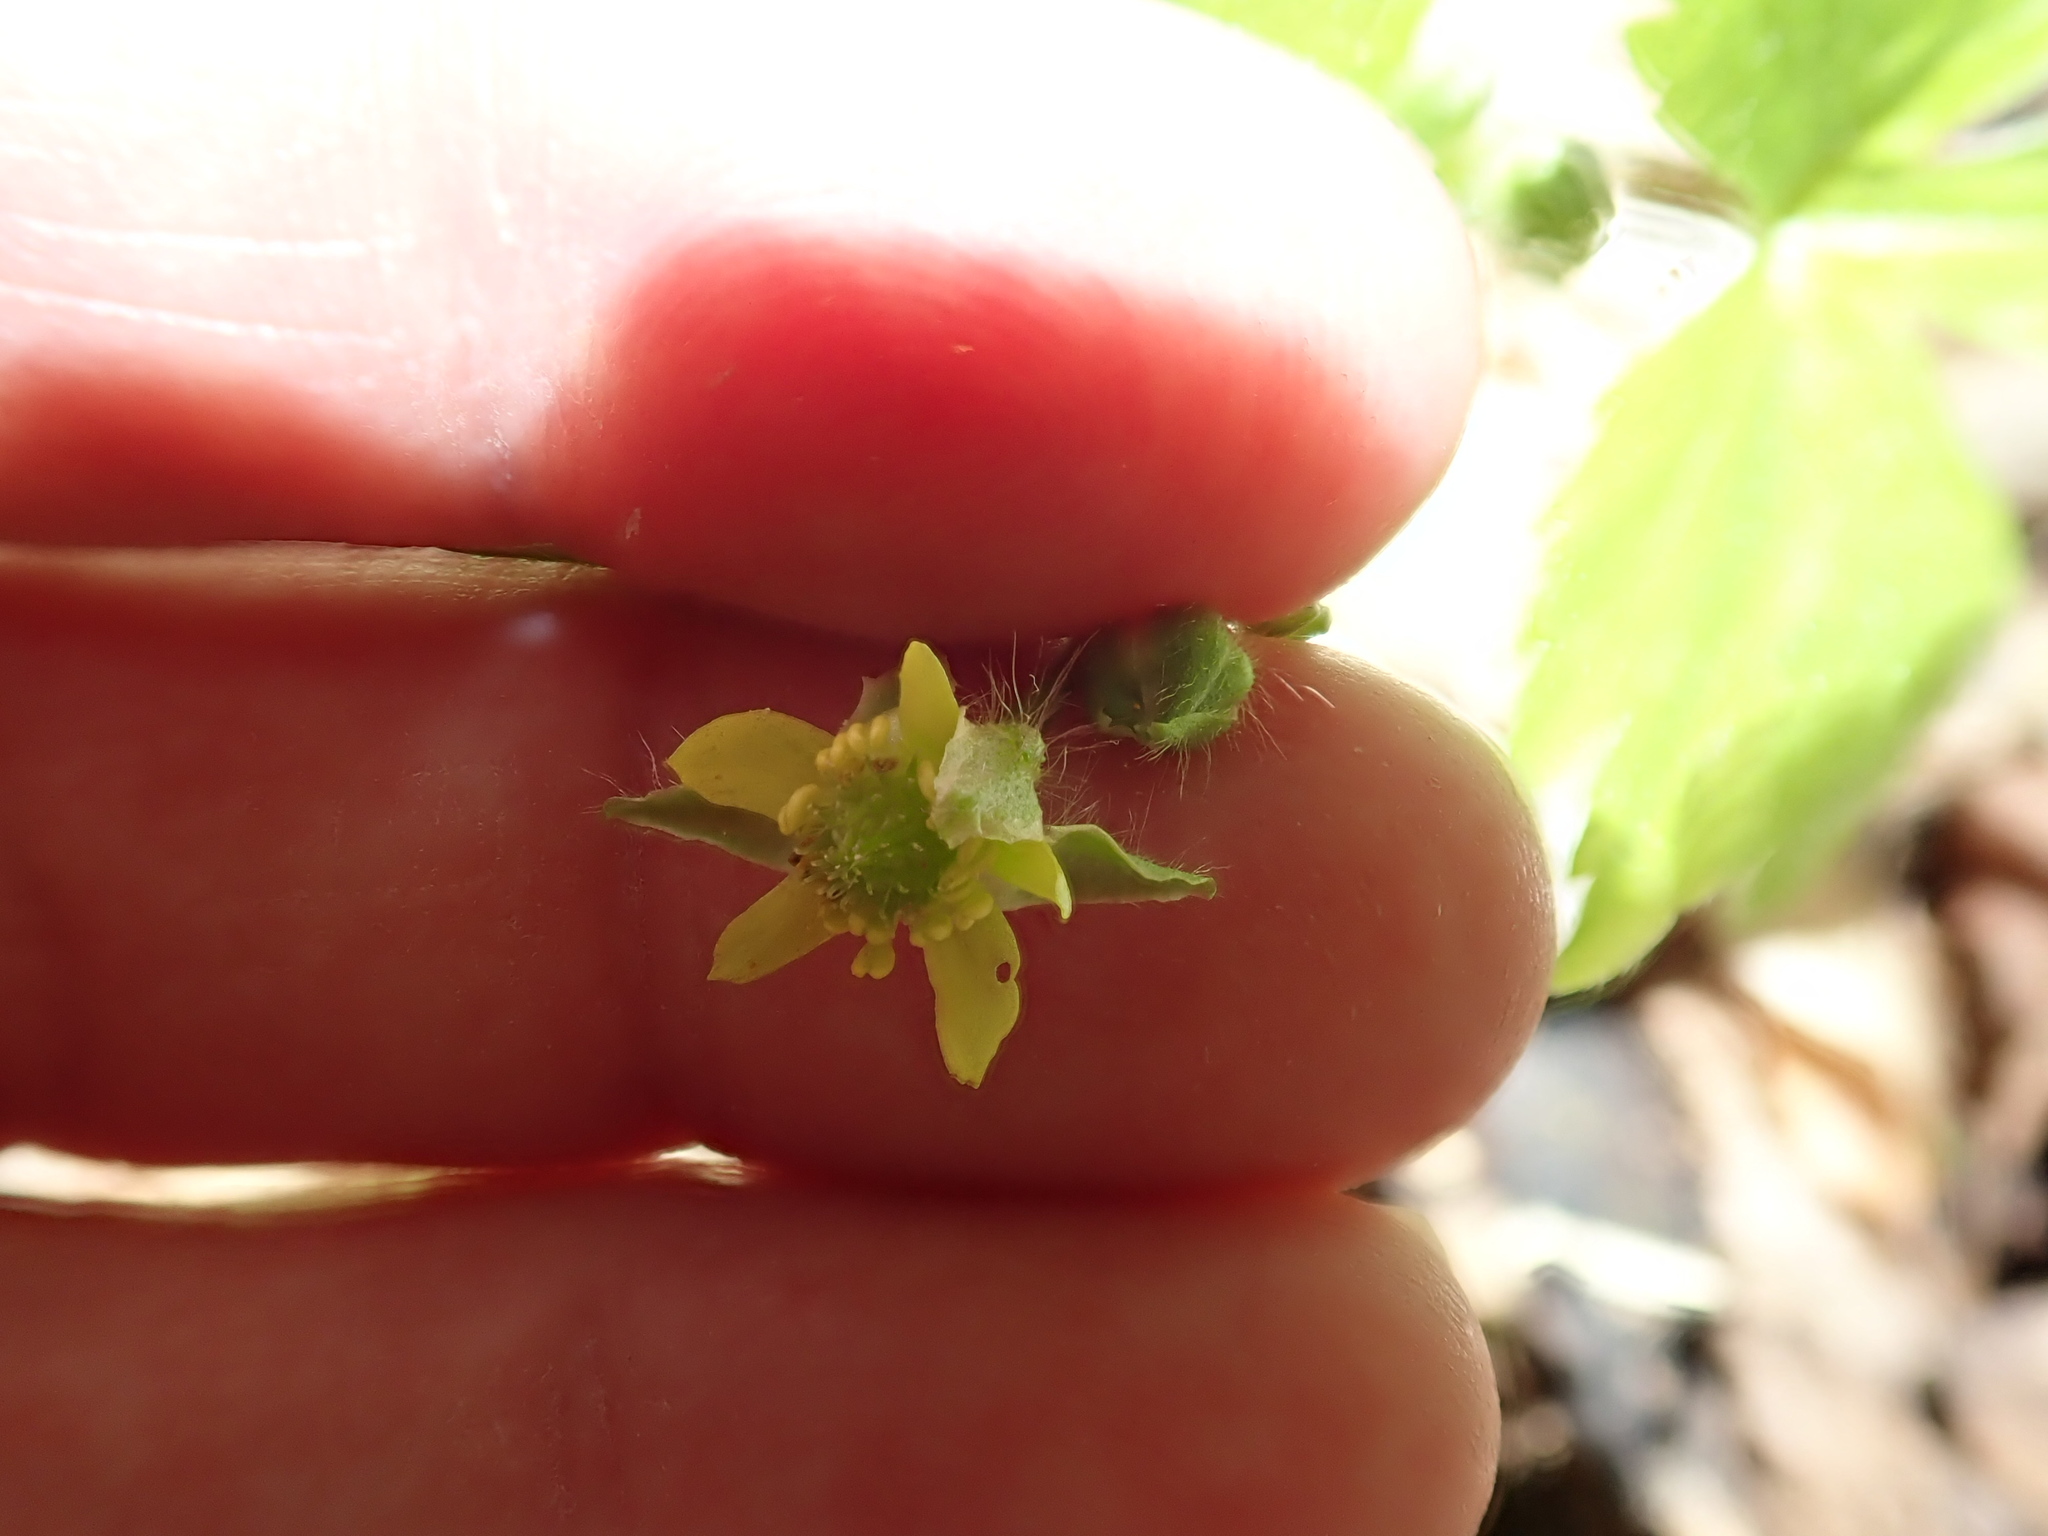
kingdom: Plantae
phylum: Tracheophyta
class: Magnoliopsida
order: Ranunculales
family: Ranunculaceae
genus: Ranunculus
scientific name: Ranunculus recurvatus
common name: Blisterwort
